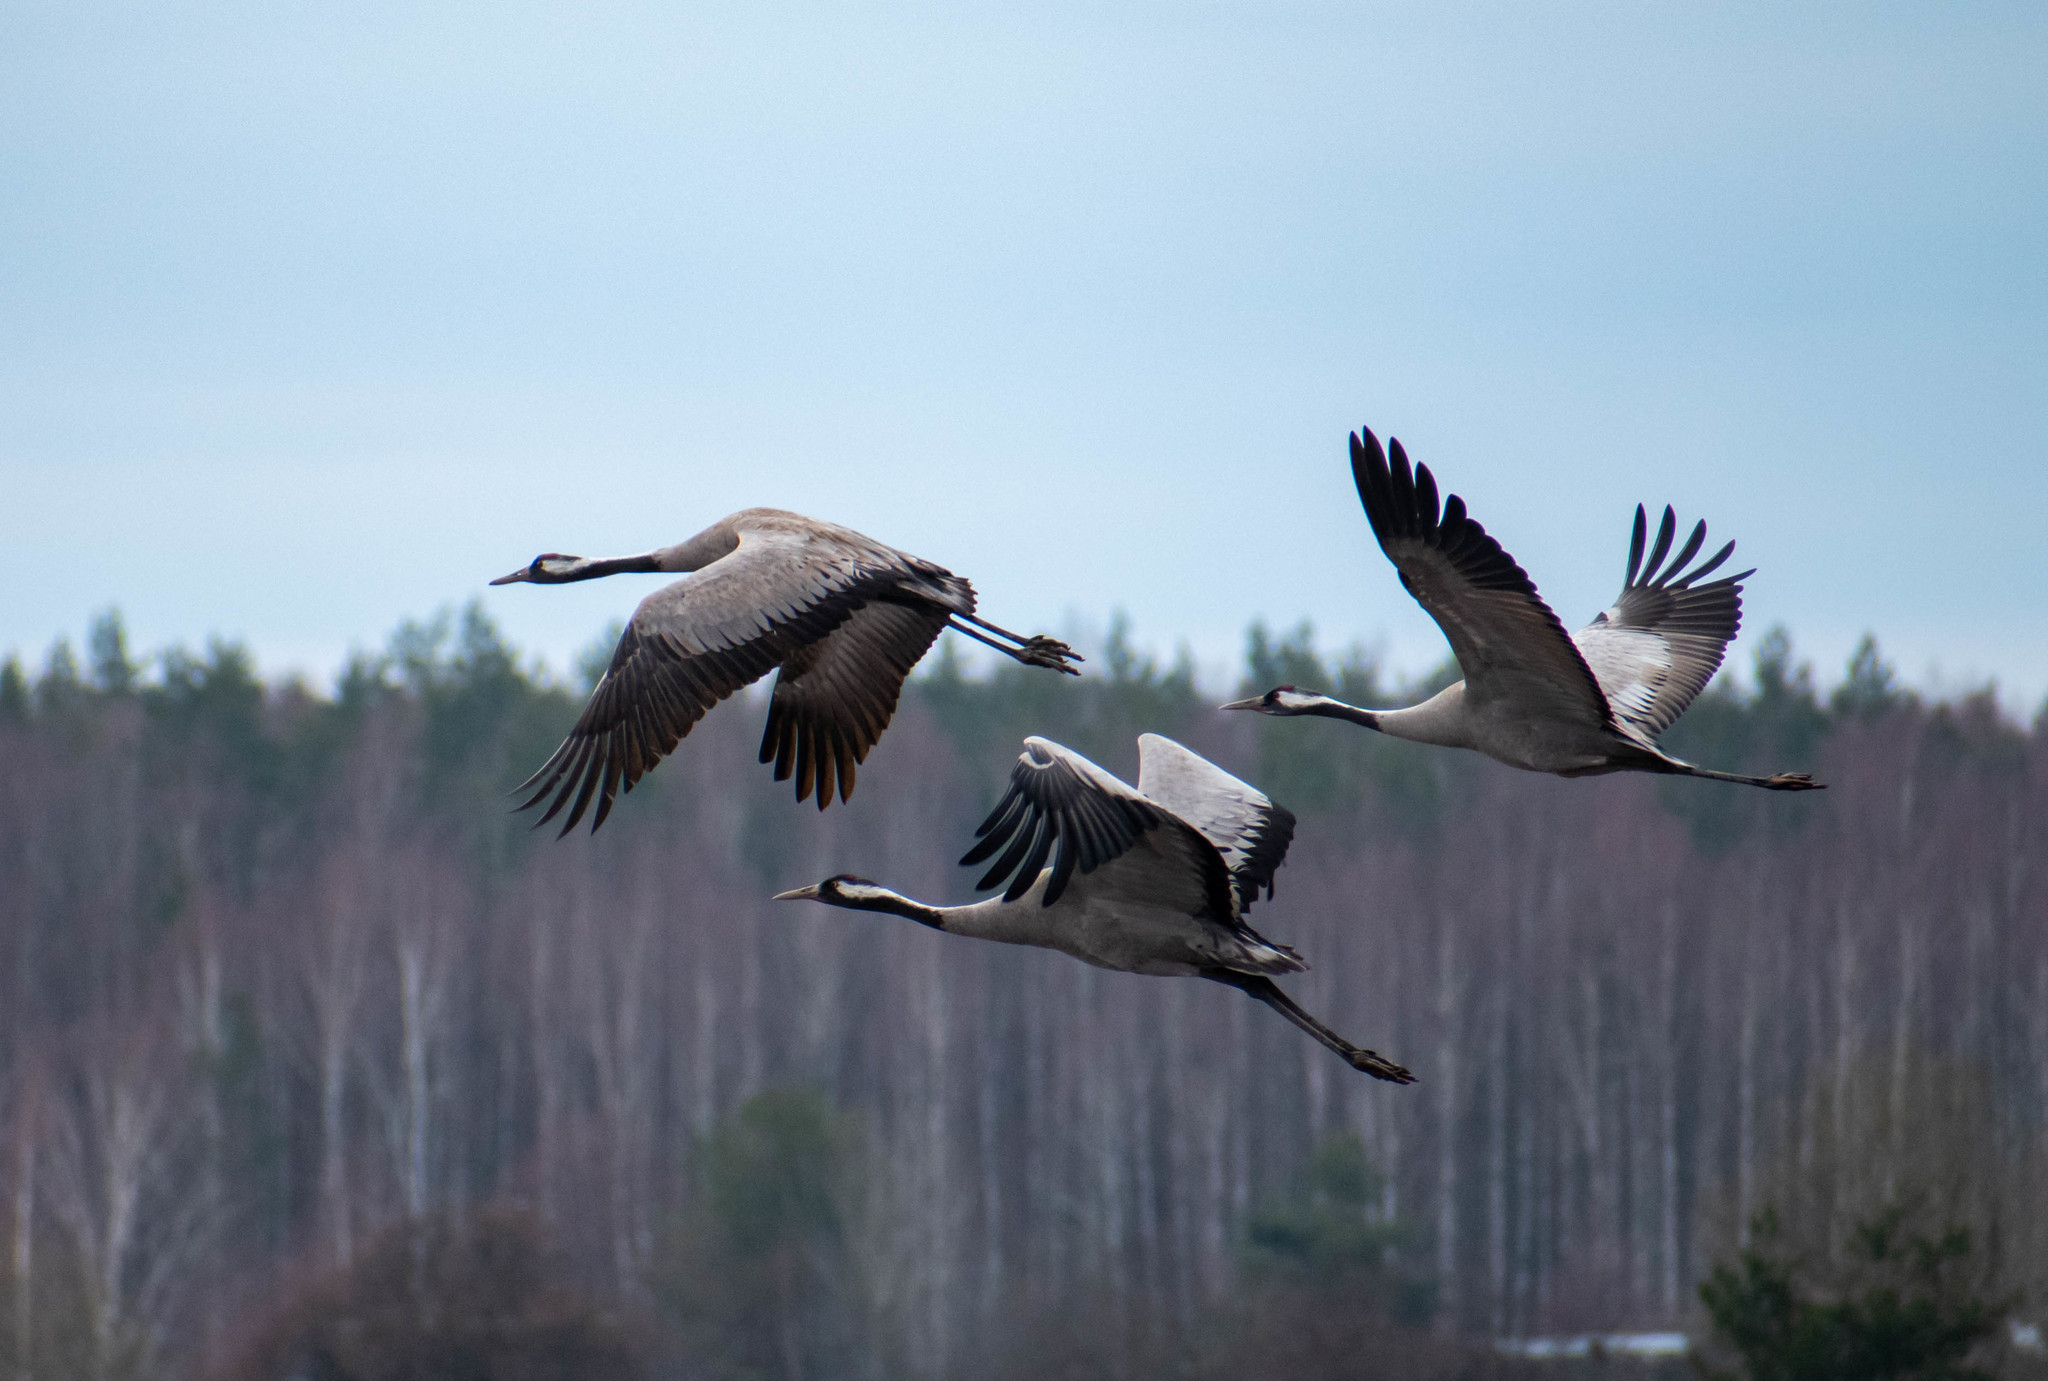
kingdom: Animalia
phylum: Chordata
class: Aves
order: Gruiformes
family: Gruidae
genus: Grus
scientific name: Grus grus
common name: Common crane
